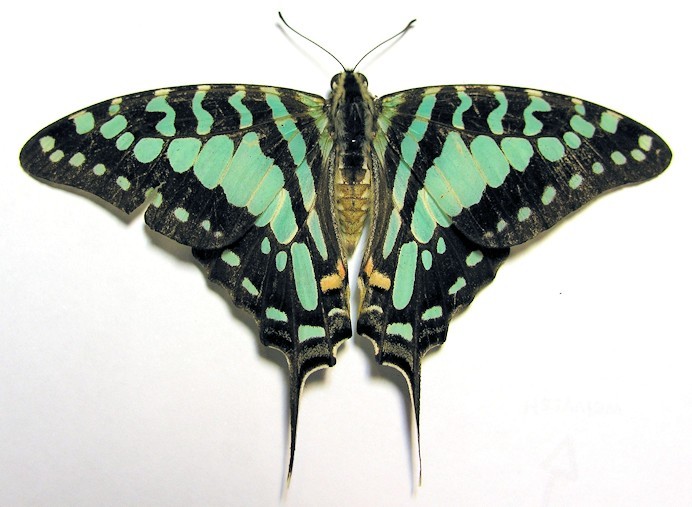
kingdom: Animalia
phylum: Arthropoda
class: Insecta
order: Lepidoptera
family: Papilionidae
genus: Graphium
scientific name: Graphium antheus
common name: Large striped swordtail
